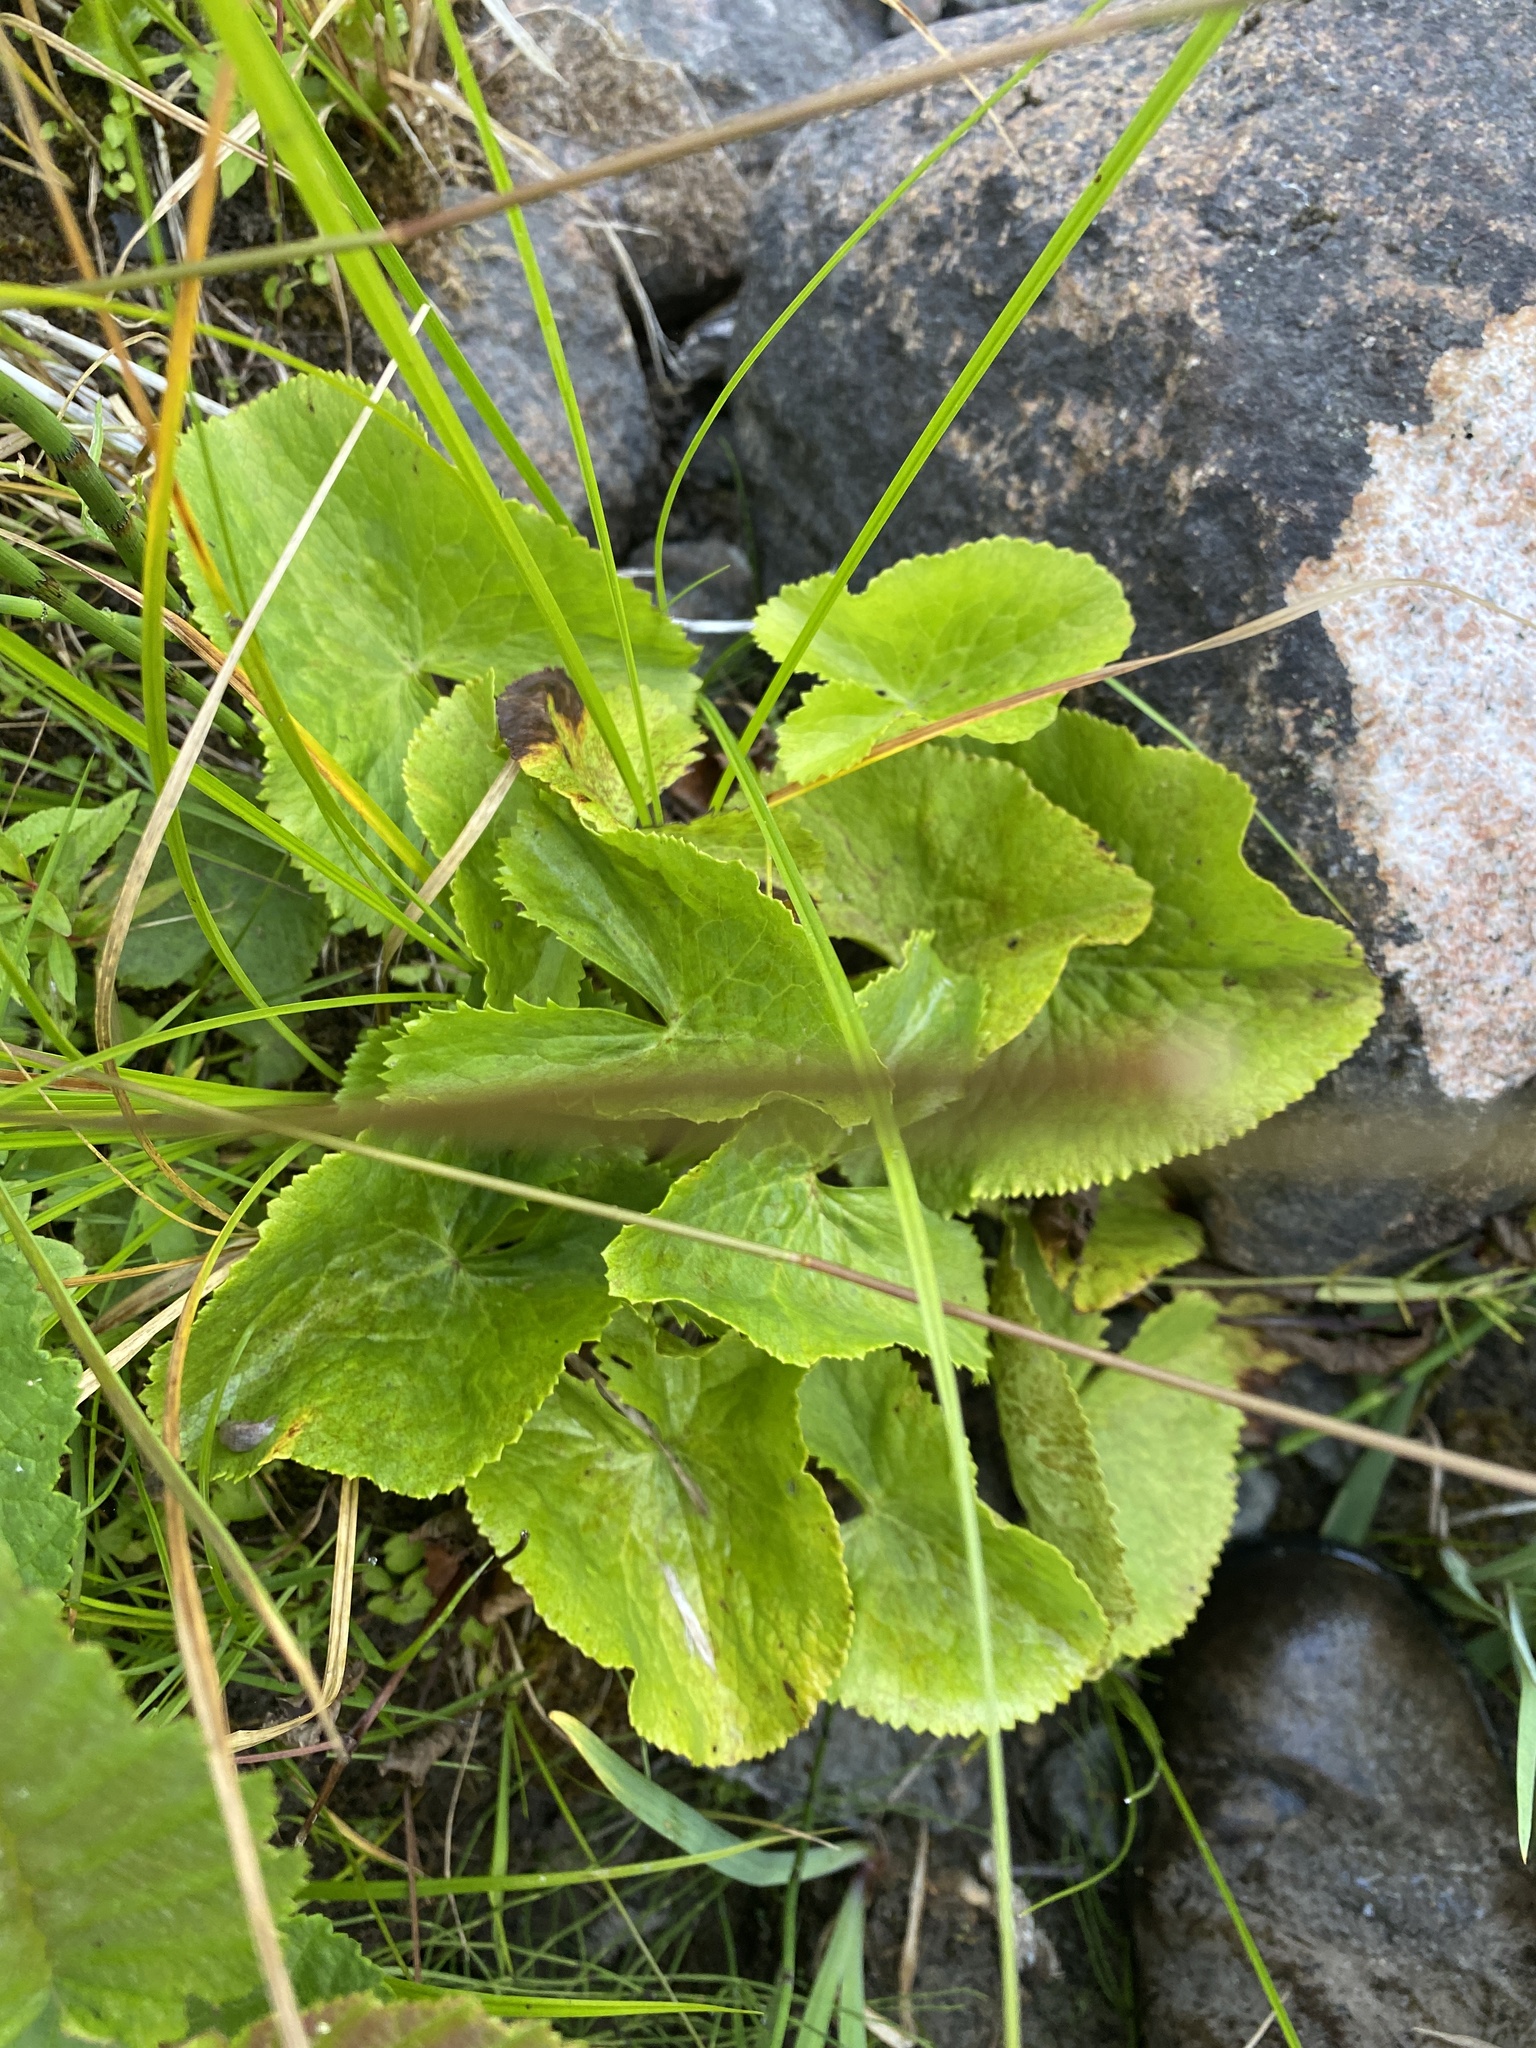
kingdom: Plantae
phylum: Tracheophyta
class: Magnoliopsida
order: Ranunculales
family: Ranunculaceae
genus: Caltha
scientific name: Caltha palustris
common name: Marsh marigold
